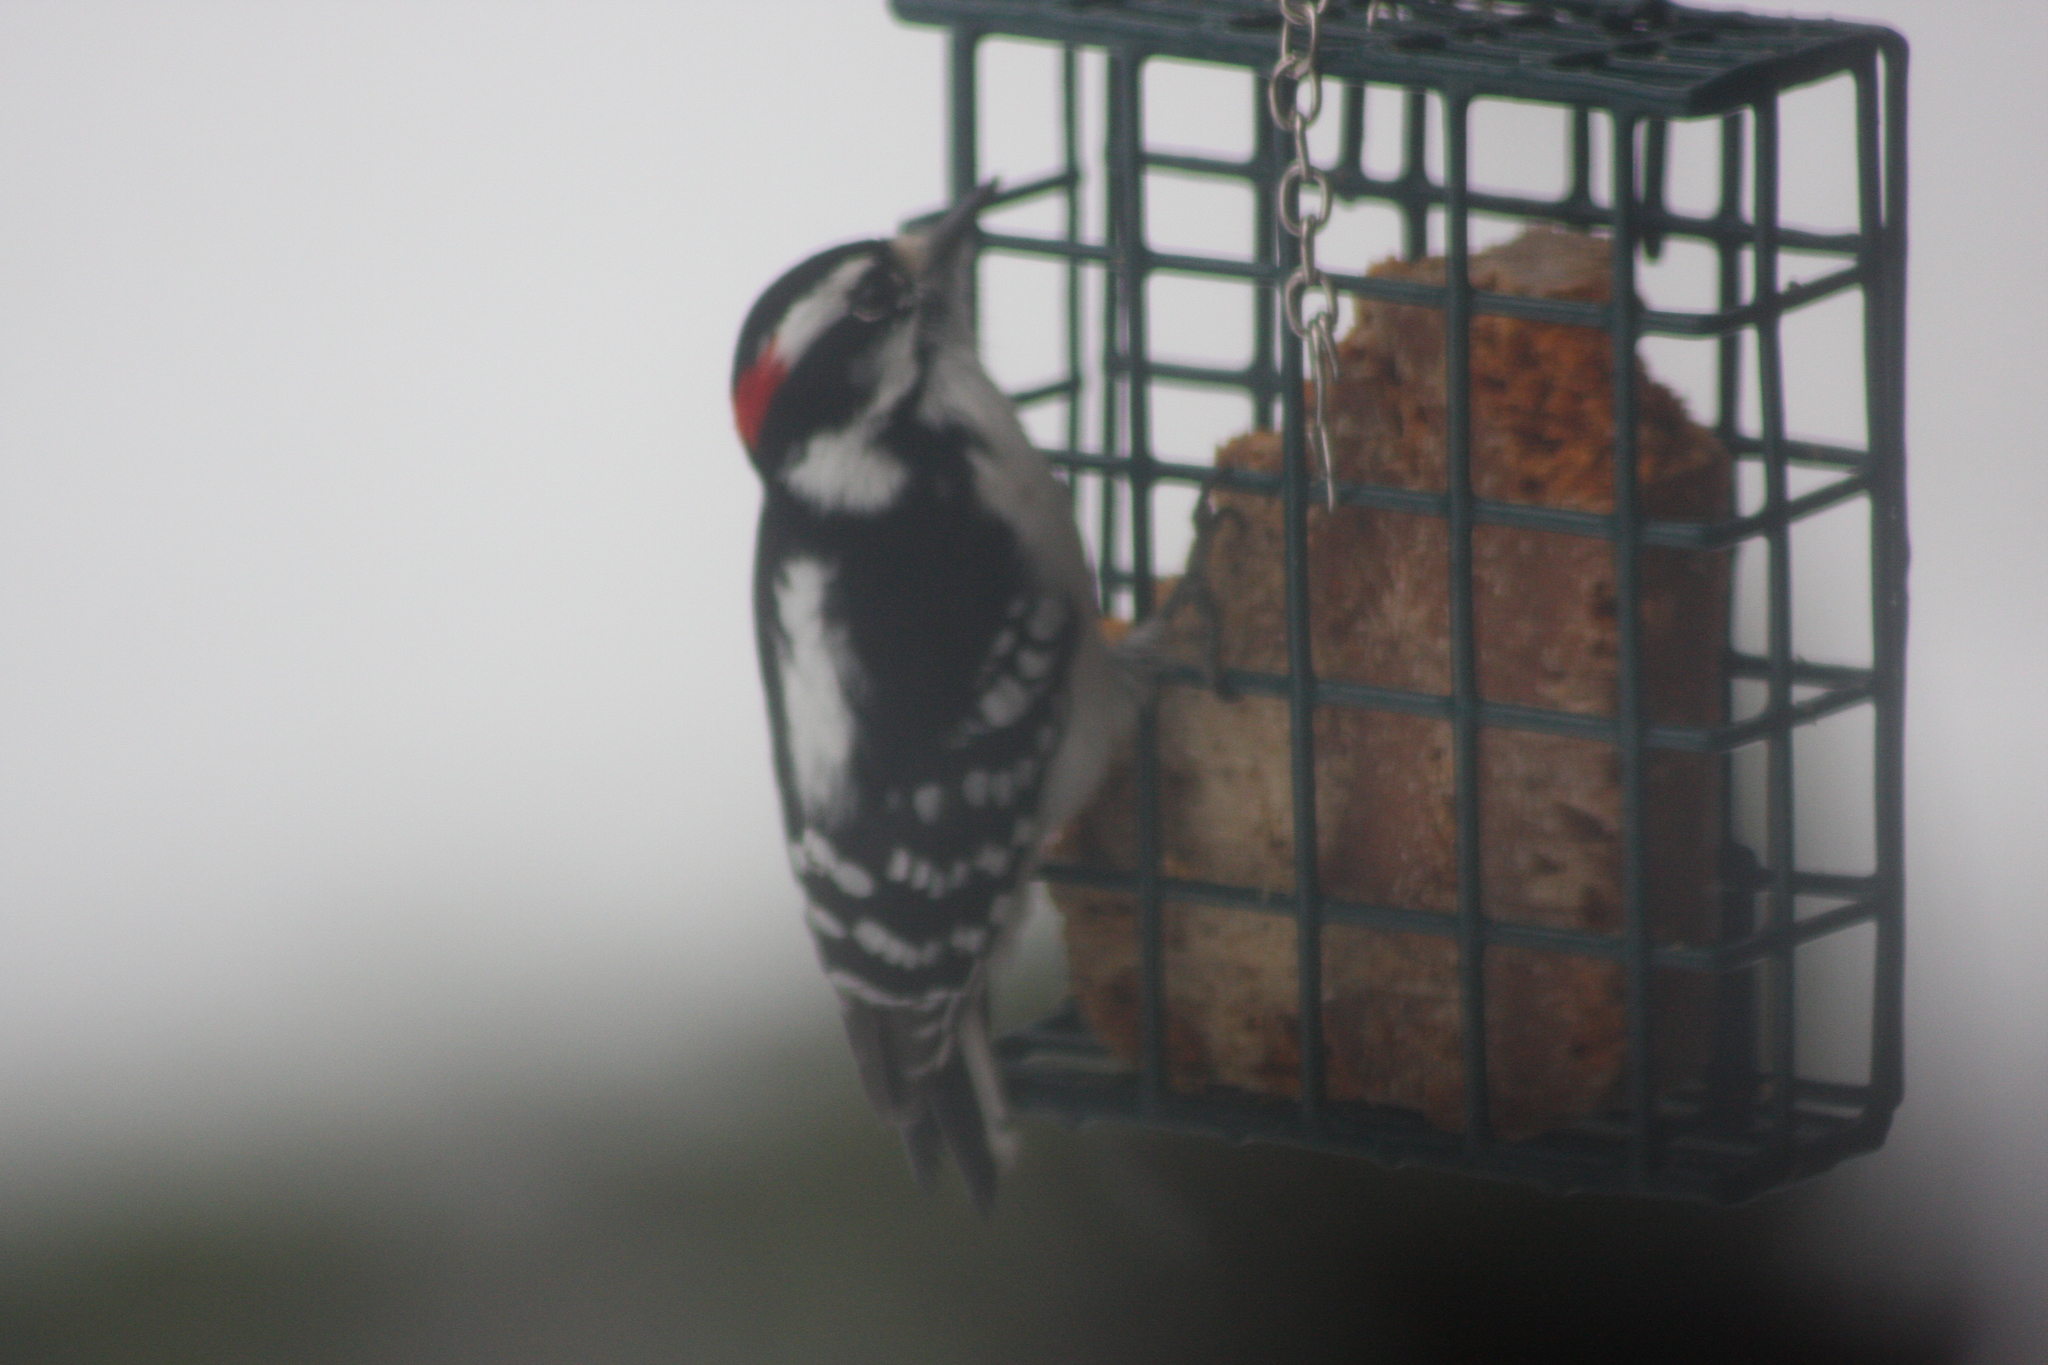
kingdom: Animalia
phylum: Chordata
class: Aves
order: Piciformes
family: Picidae
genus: Dryobates
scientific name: Dryobates pubescens
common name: Downy woodpecker
